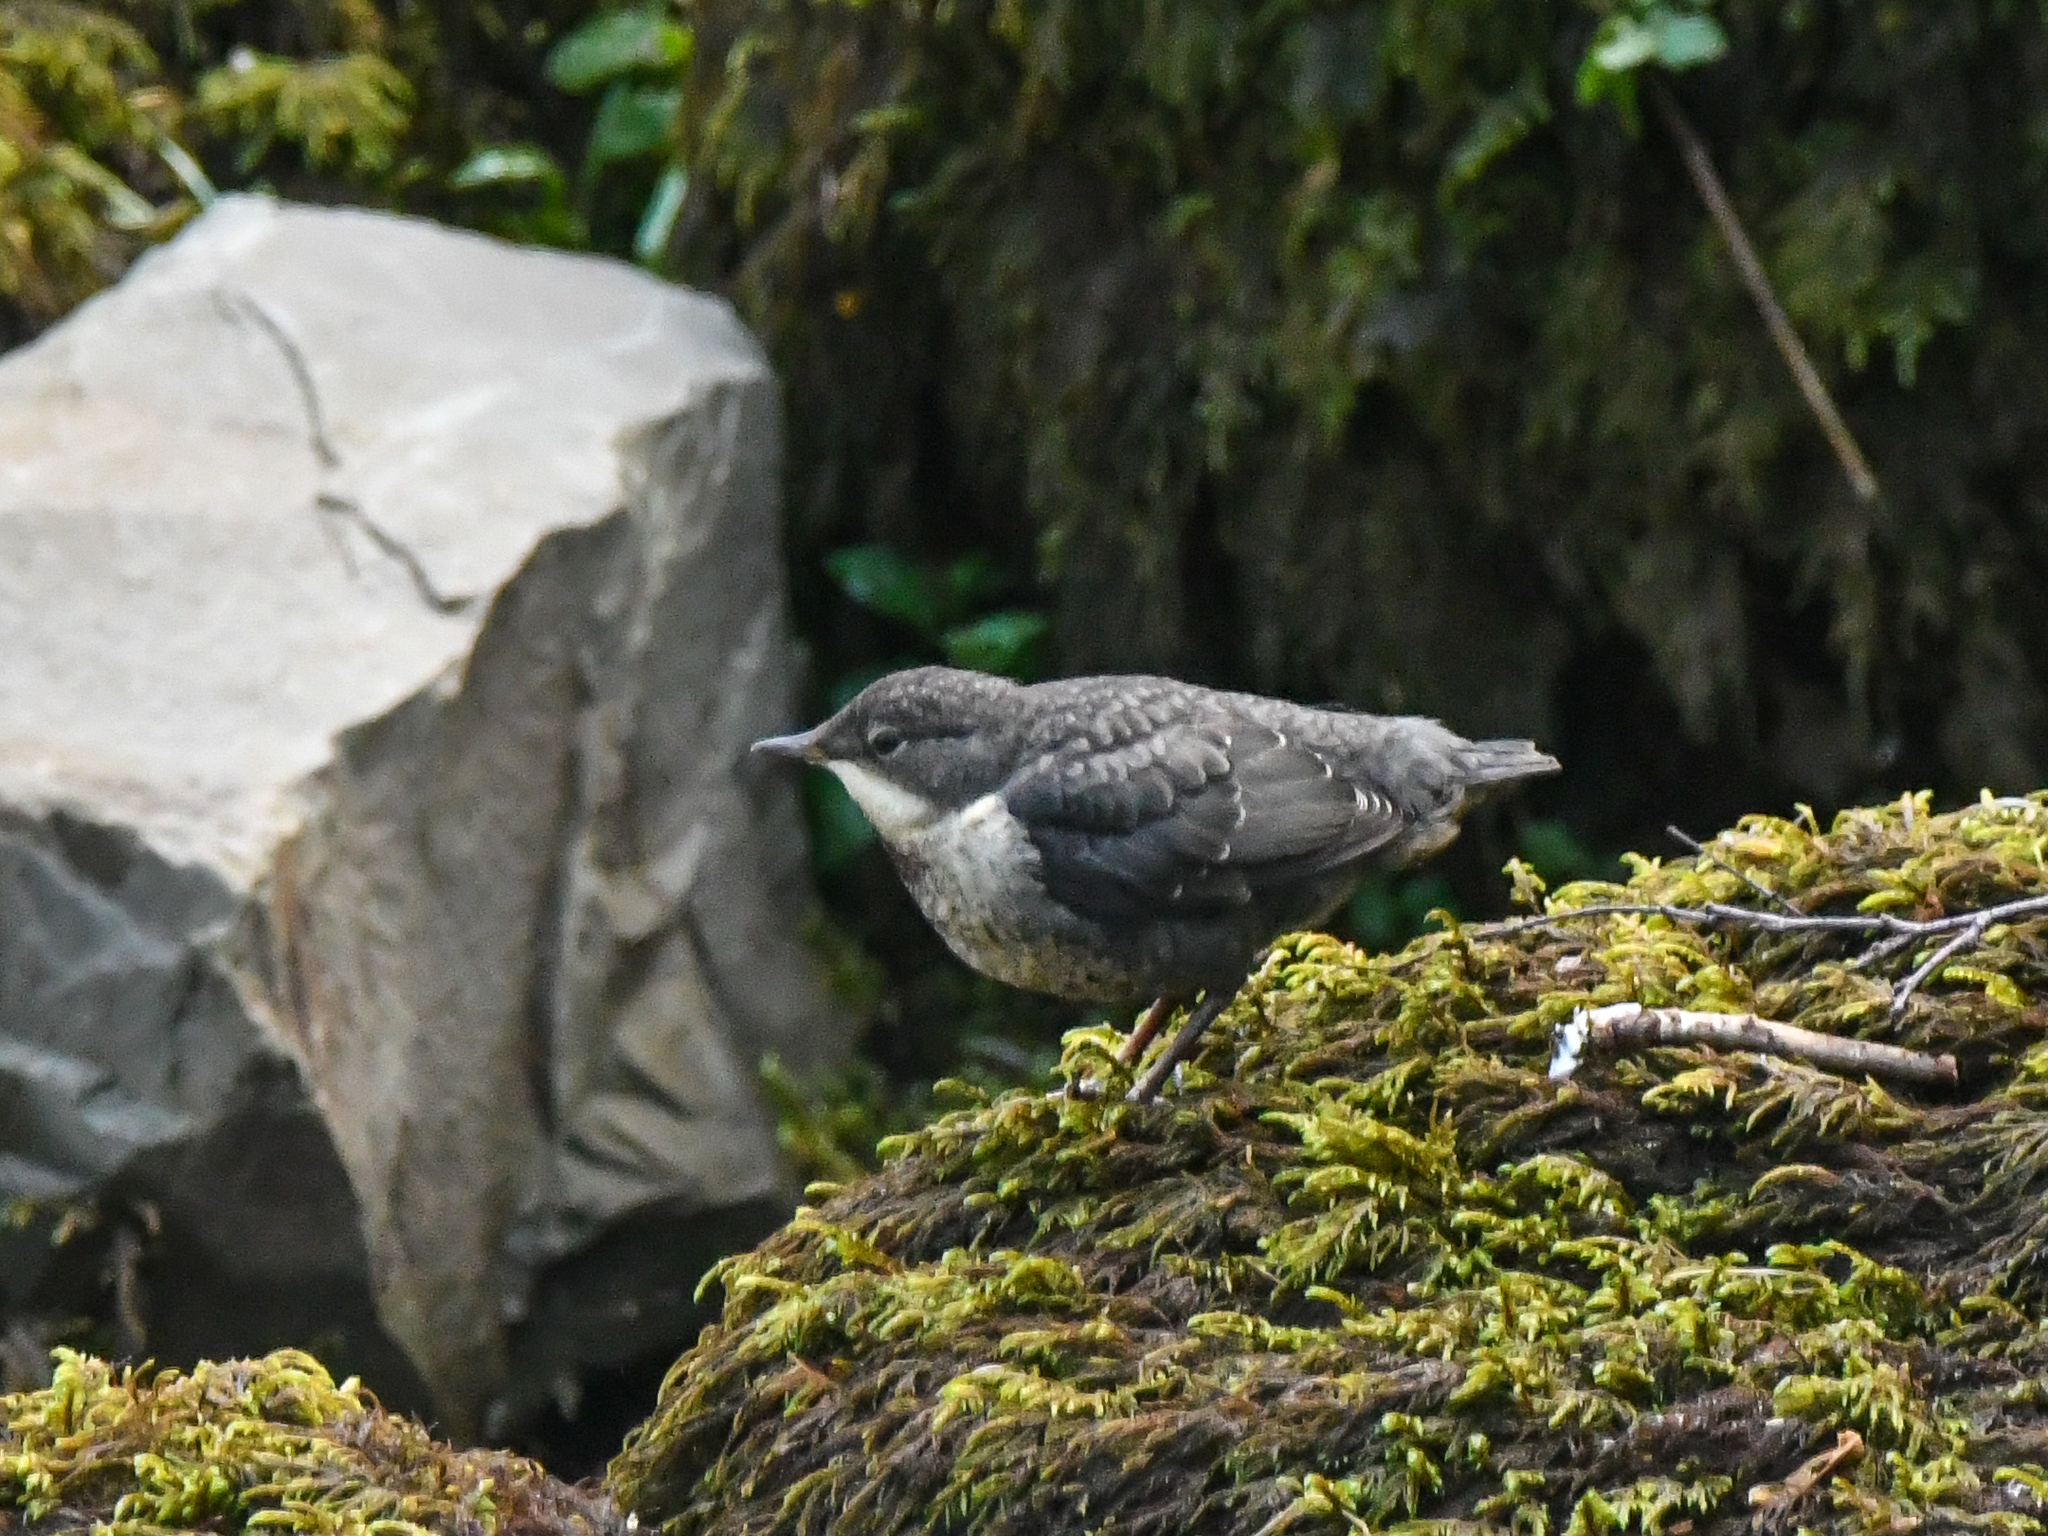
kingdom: Animalia
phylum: Chordata
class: Aves
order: Passeriformes
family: Cinclidae
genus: Cinclus
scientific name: Cinclus cinclus
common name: White-throated dipper
